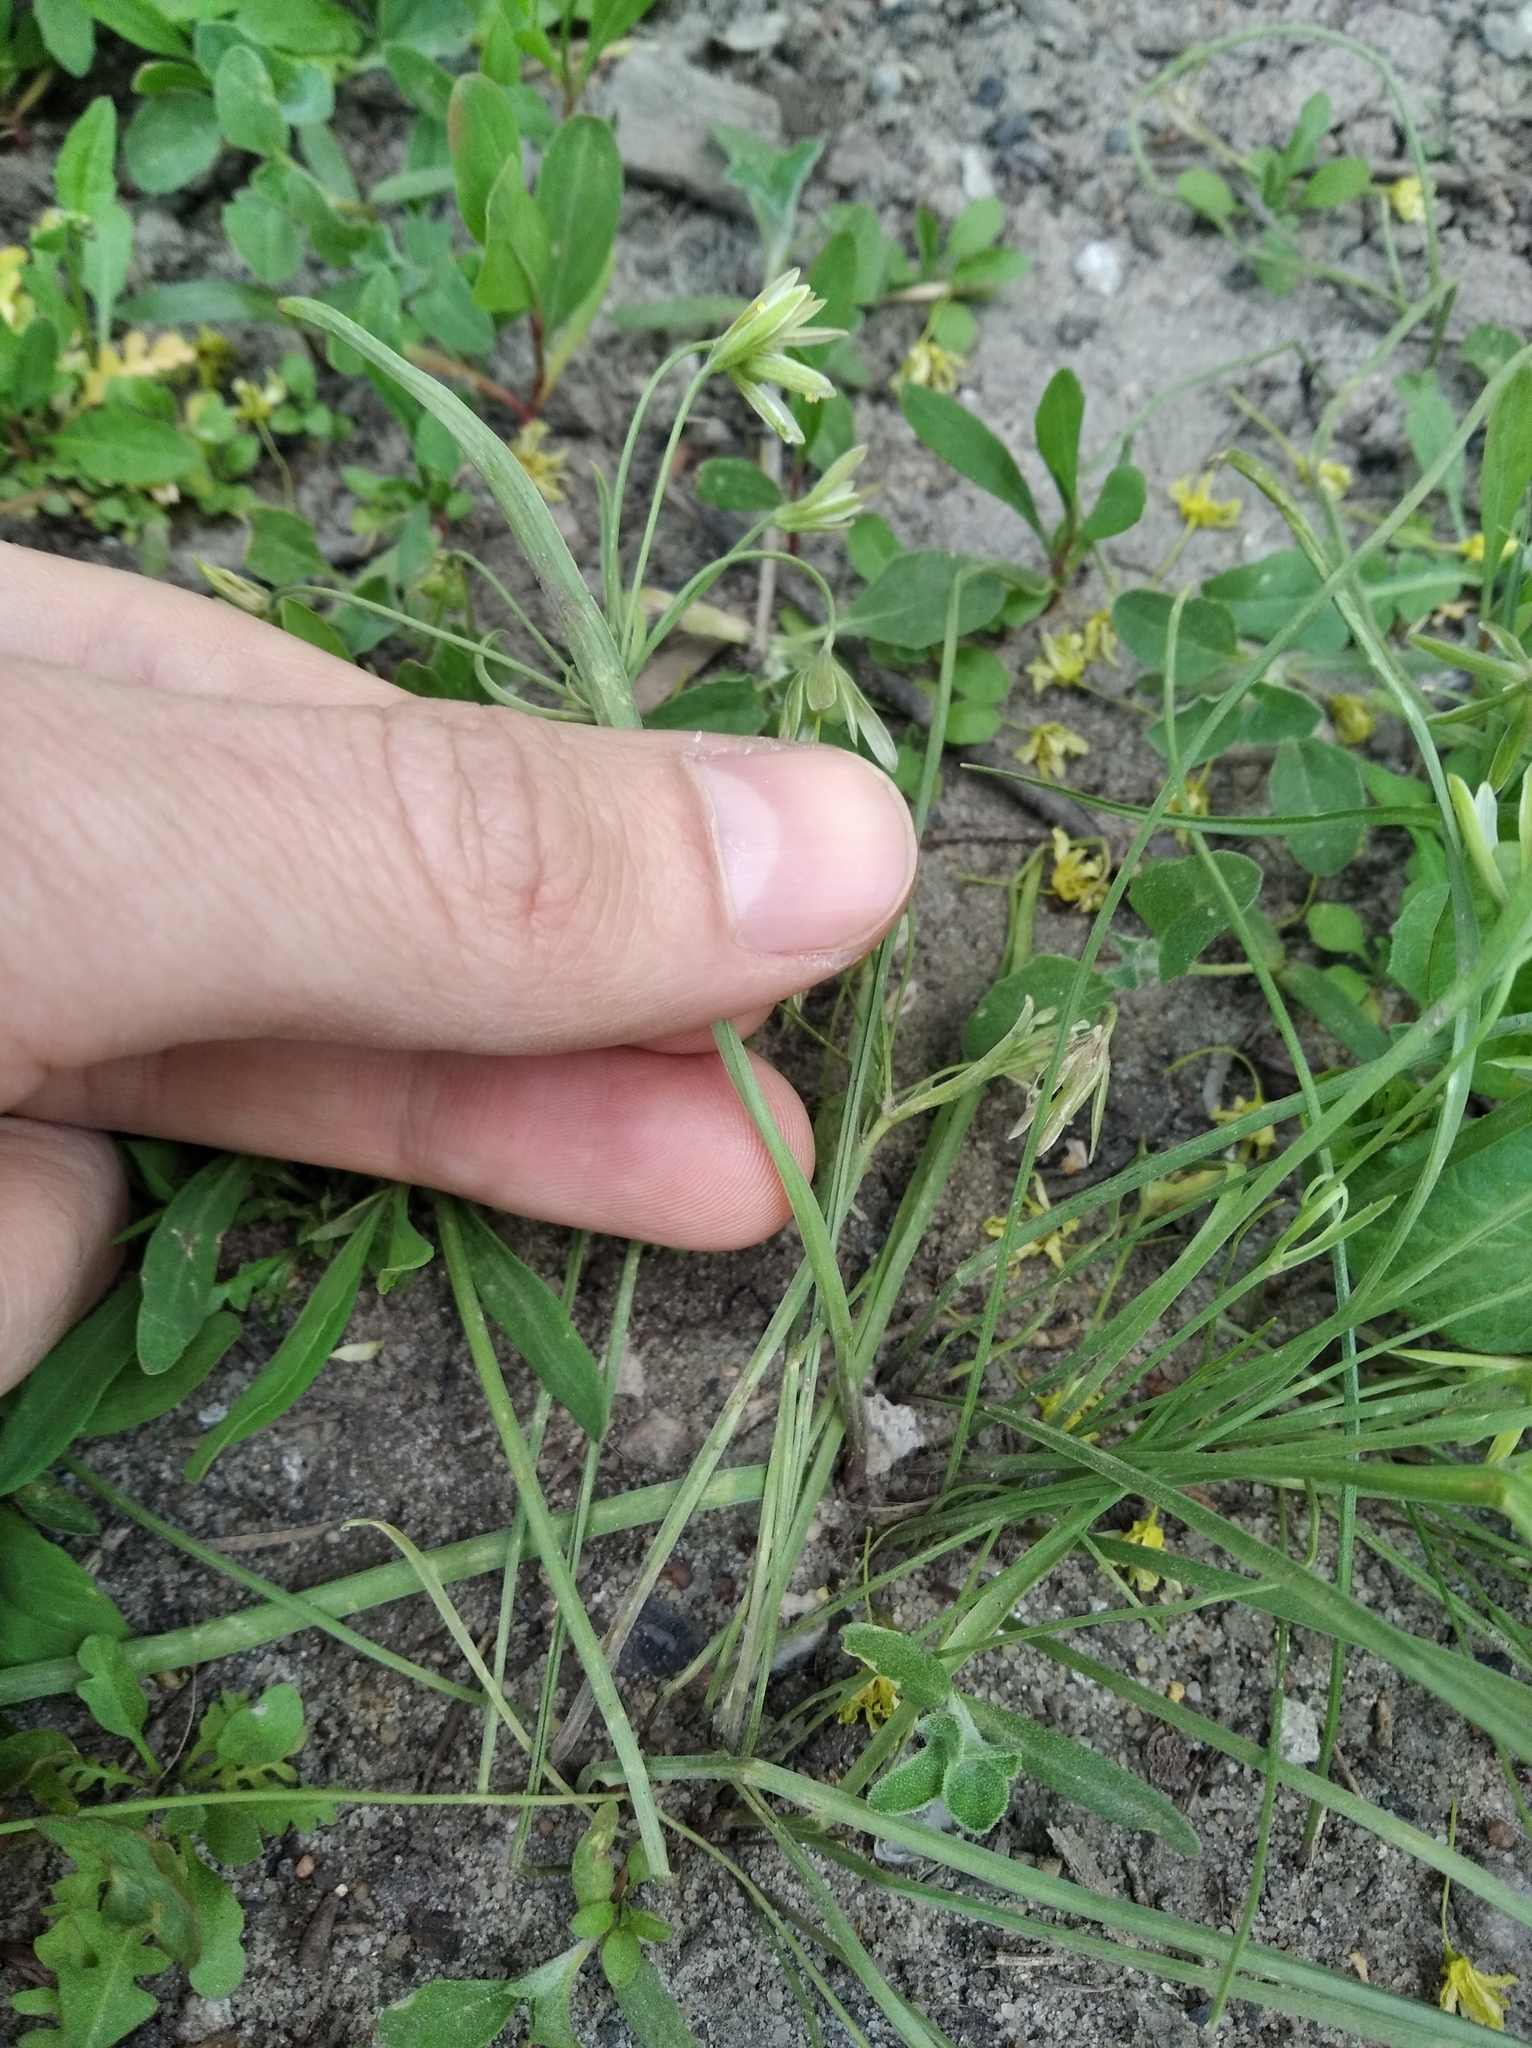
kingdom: Plantae
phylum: Tracheophyta
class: Liliopsida
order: Liliales
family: Liliaceae
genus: Gagea
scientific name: Gagea fragifera
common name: Lily
